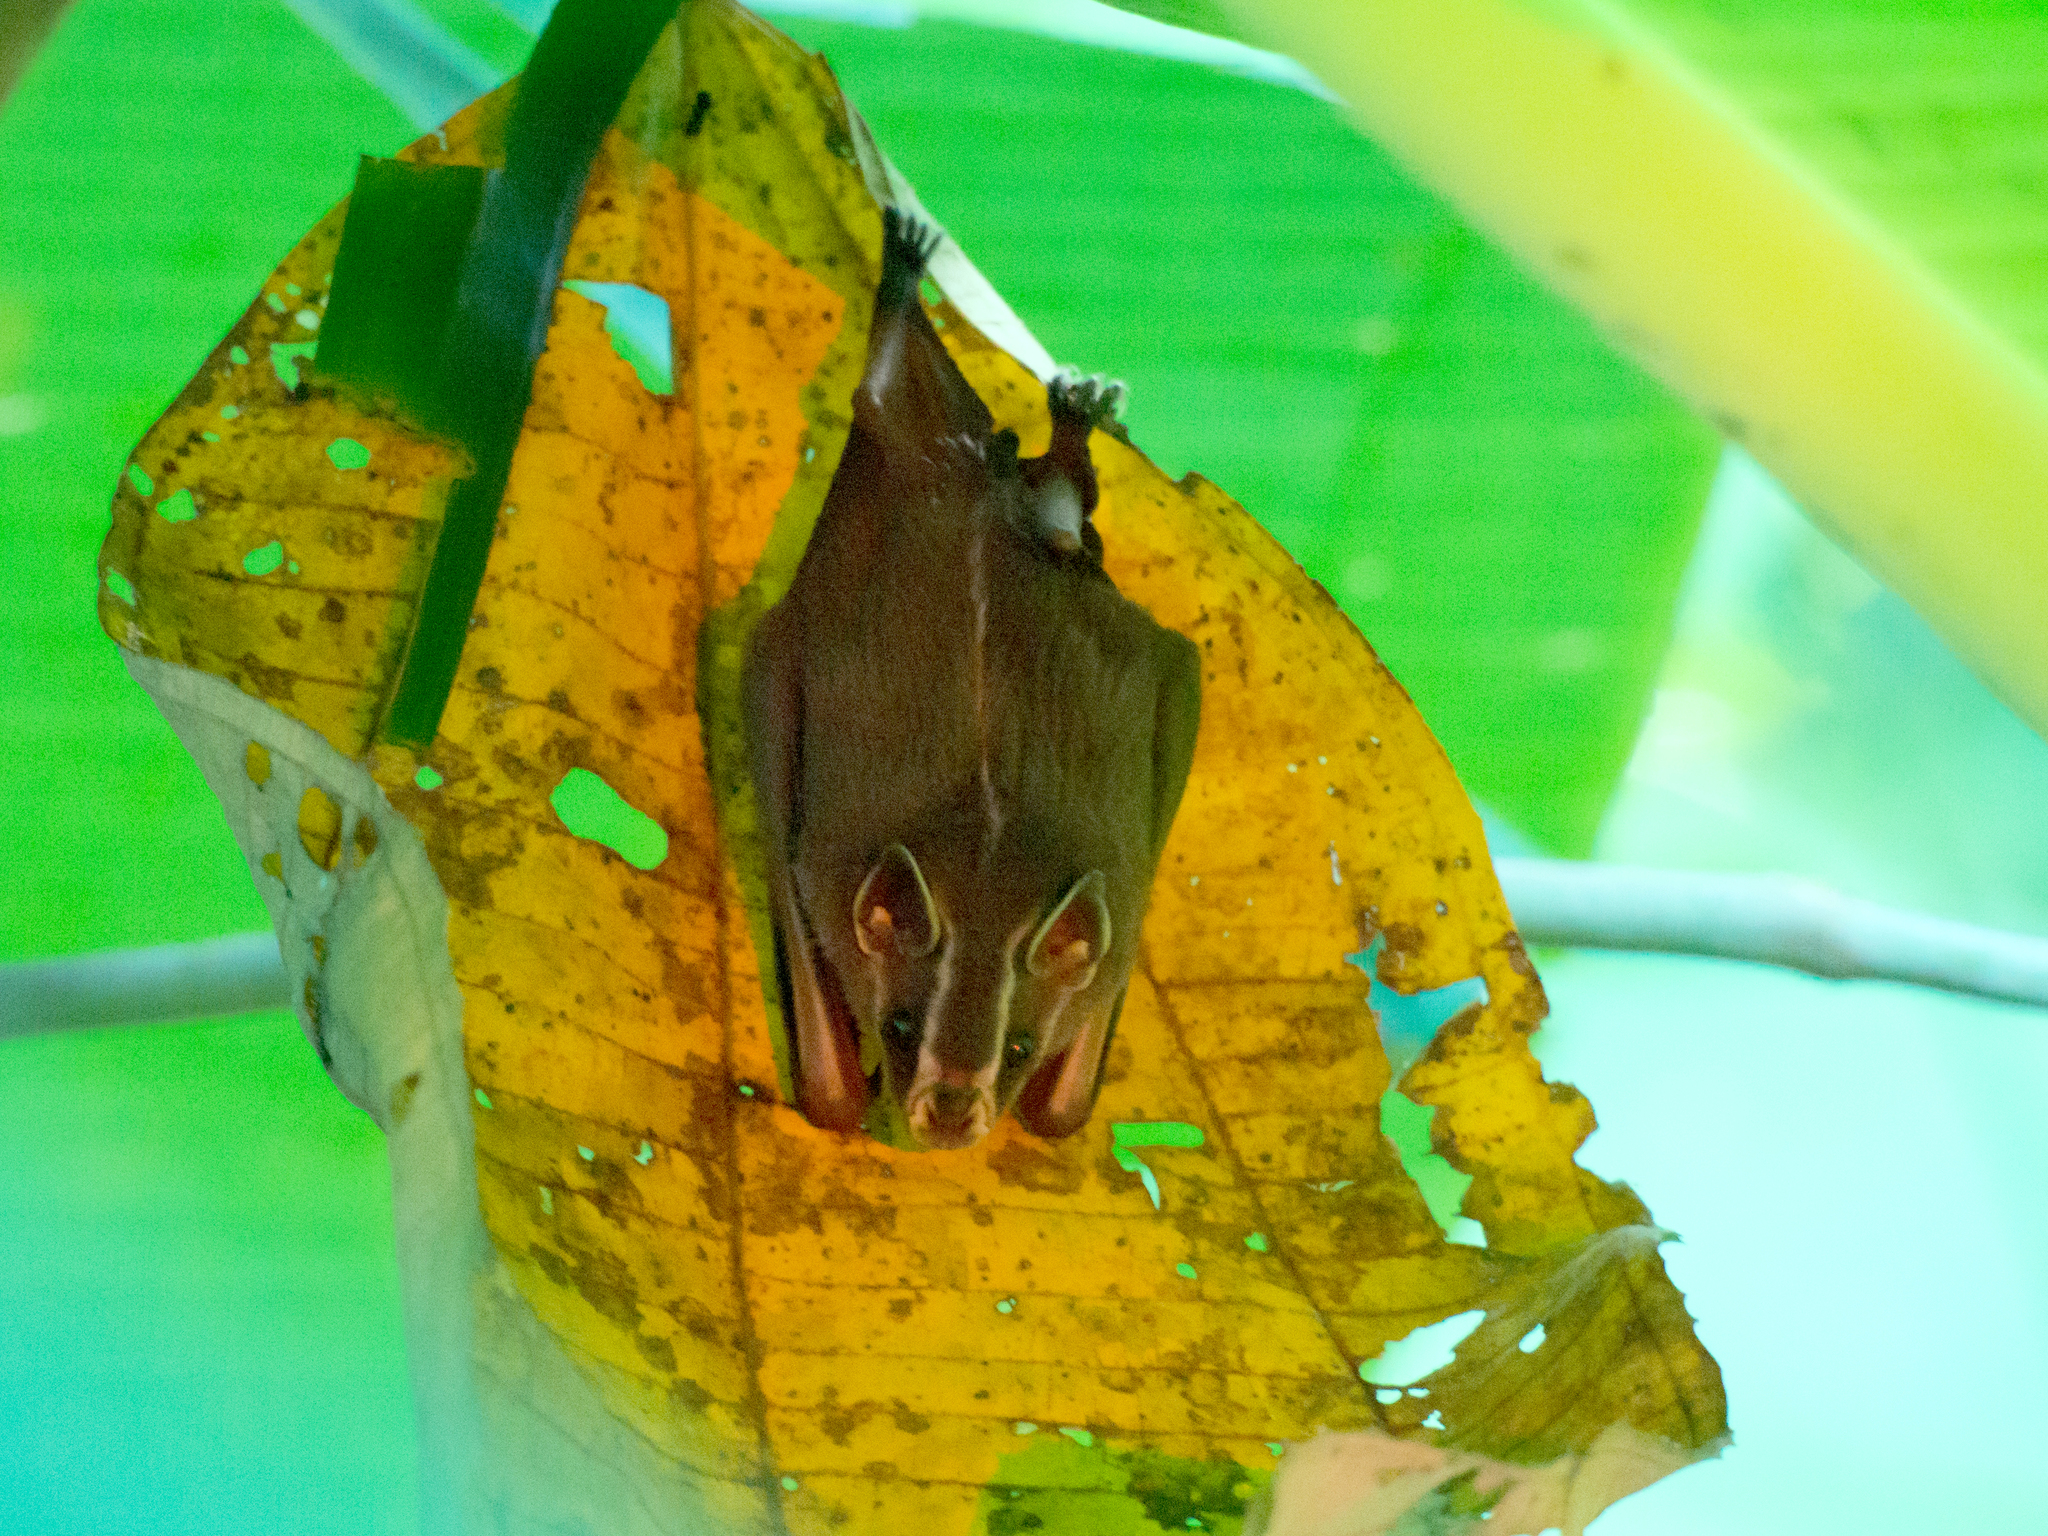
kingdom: Animalia
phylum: Chordata
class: Mammalia
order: Chiroptera
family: Phyllostomidae
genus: Uroderma
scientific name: Uroderma bilobatum
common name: Common tent-making bat
